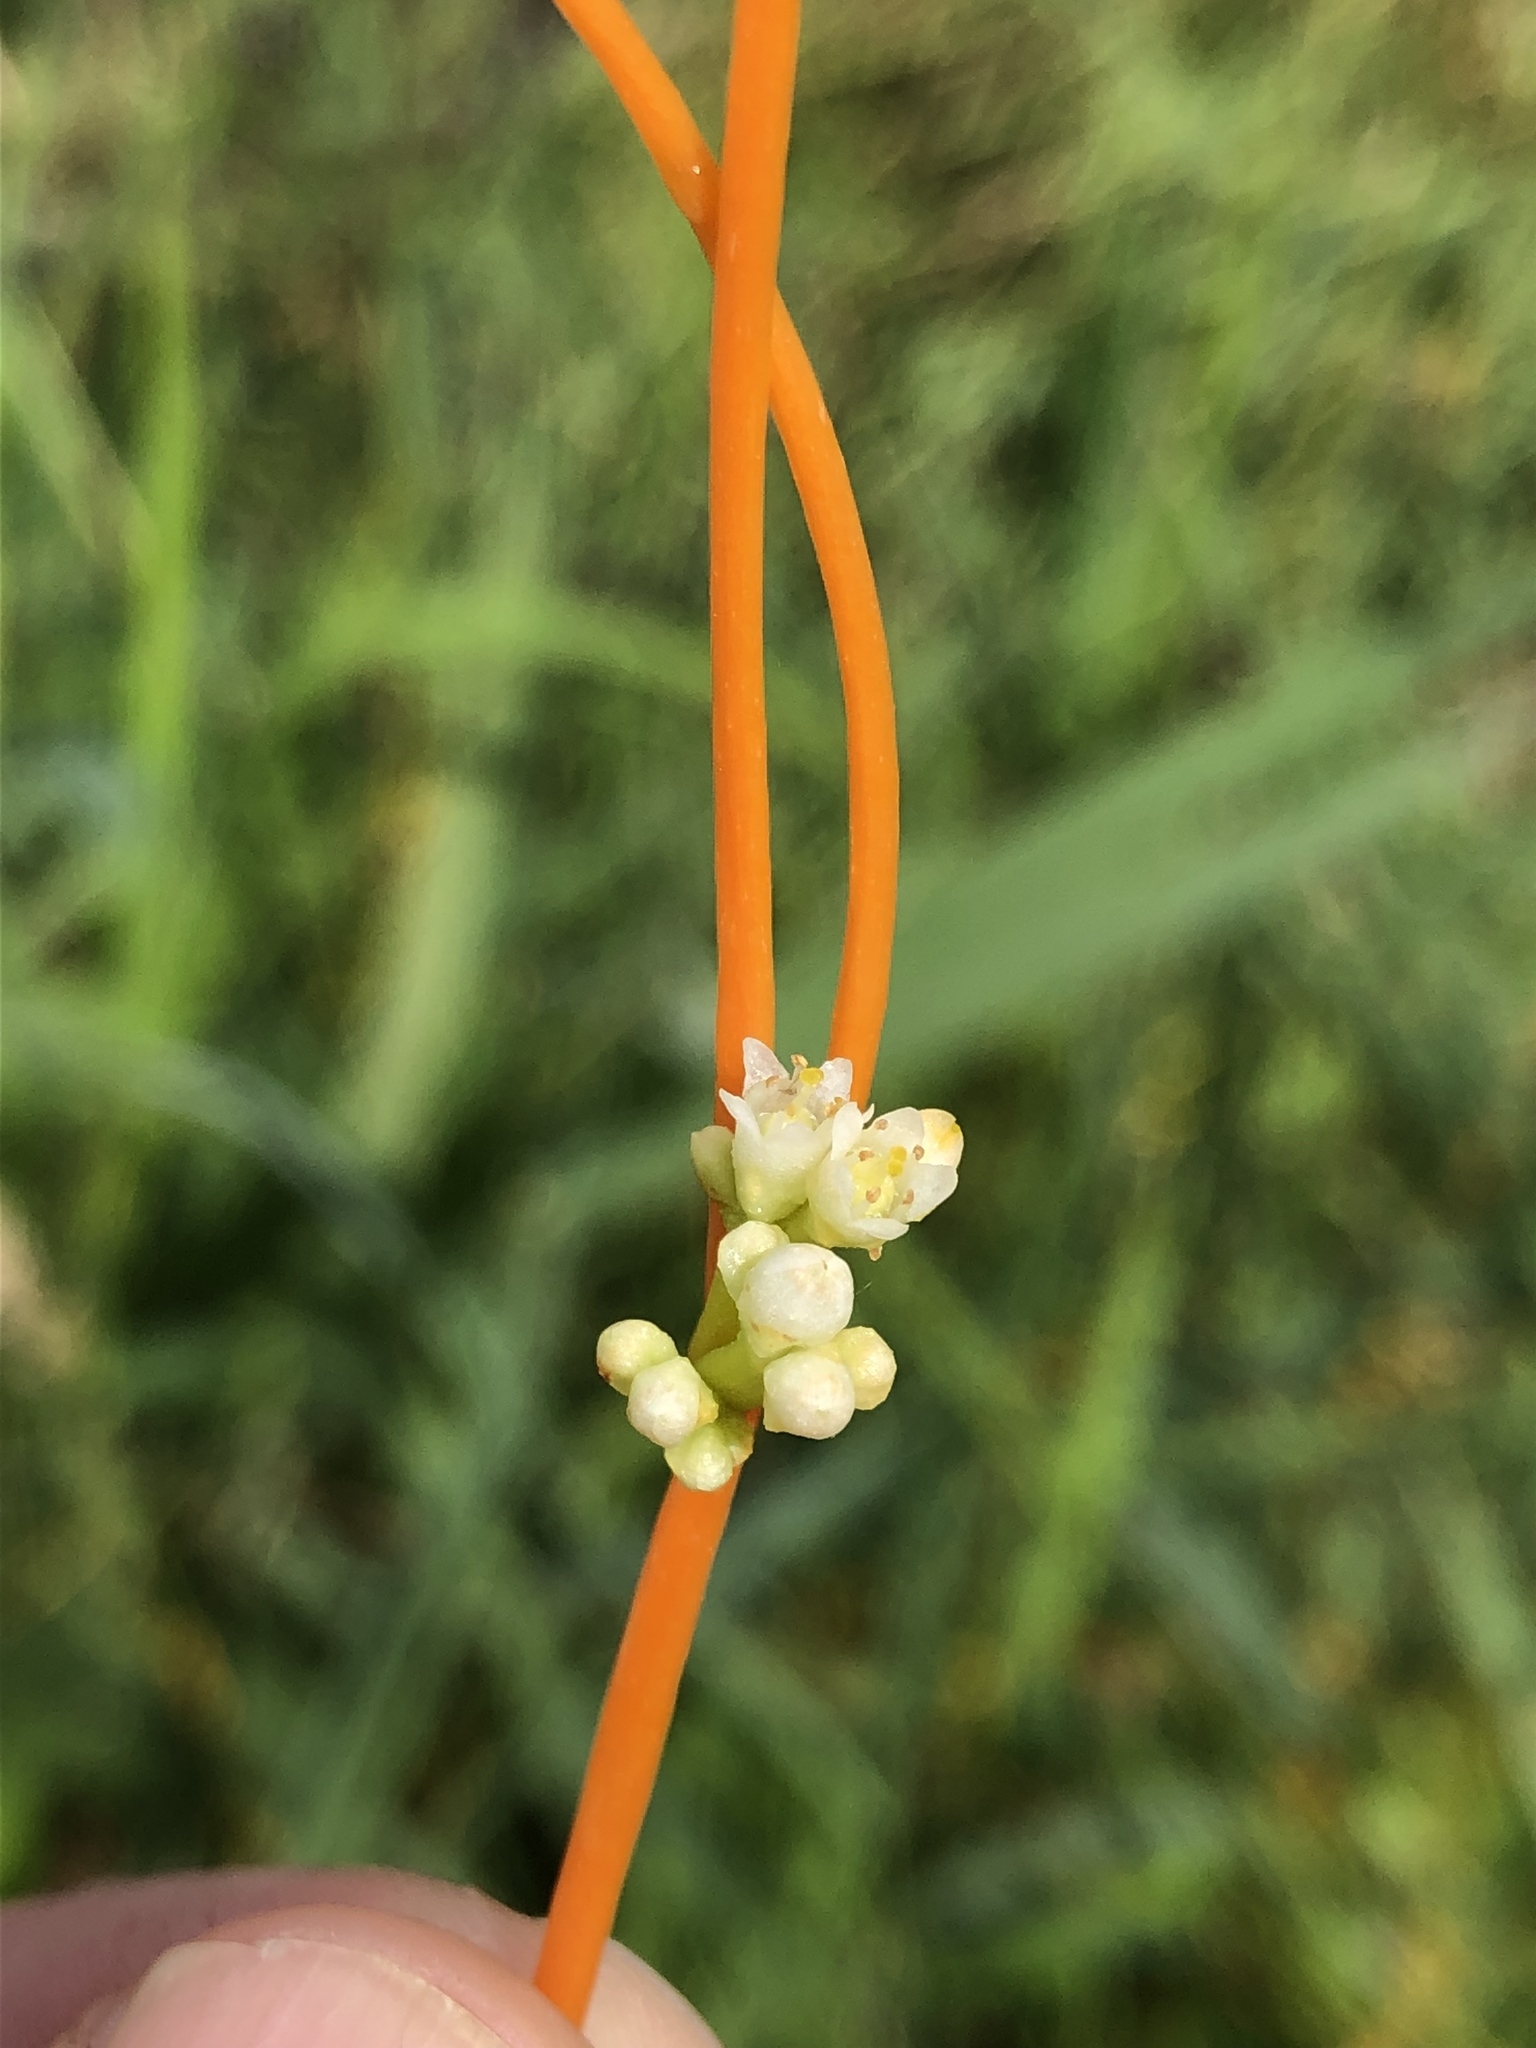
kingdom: Plantae
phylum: Tracheophyta
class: Magnoliopsida
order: Solanales
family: Convolvulaceae
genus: Cuscuta
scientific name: Cuscuta gronovii
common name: Common dodder
